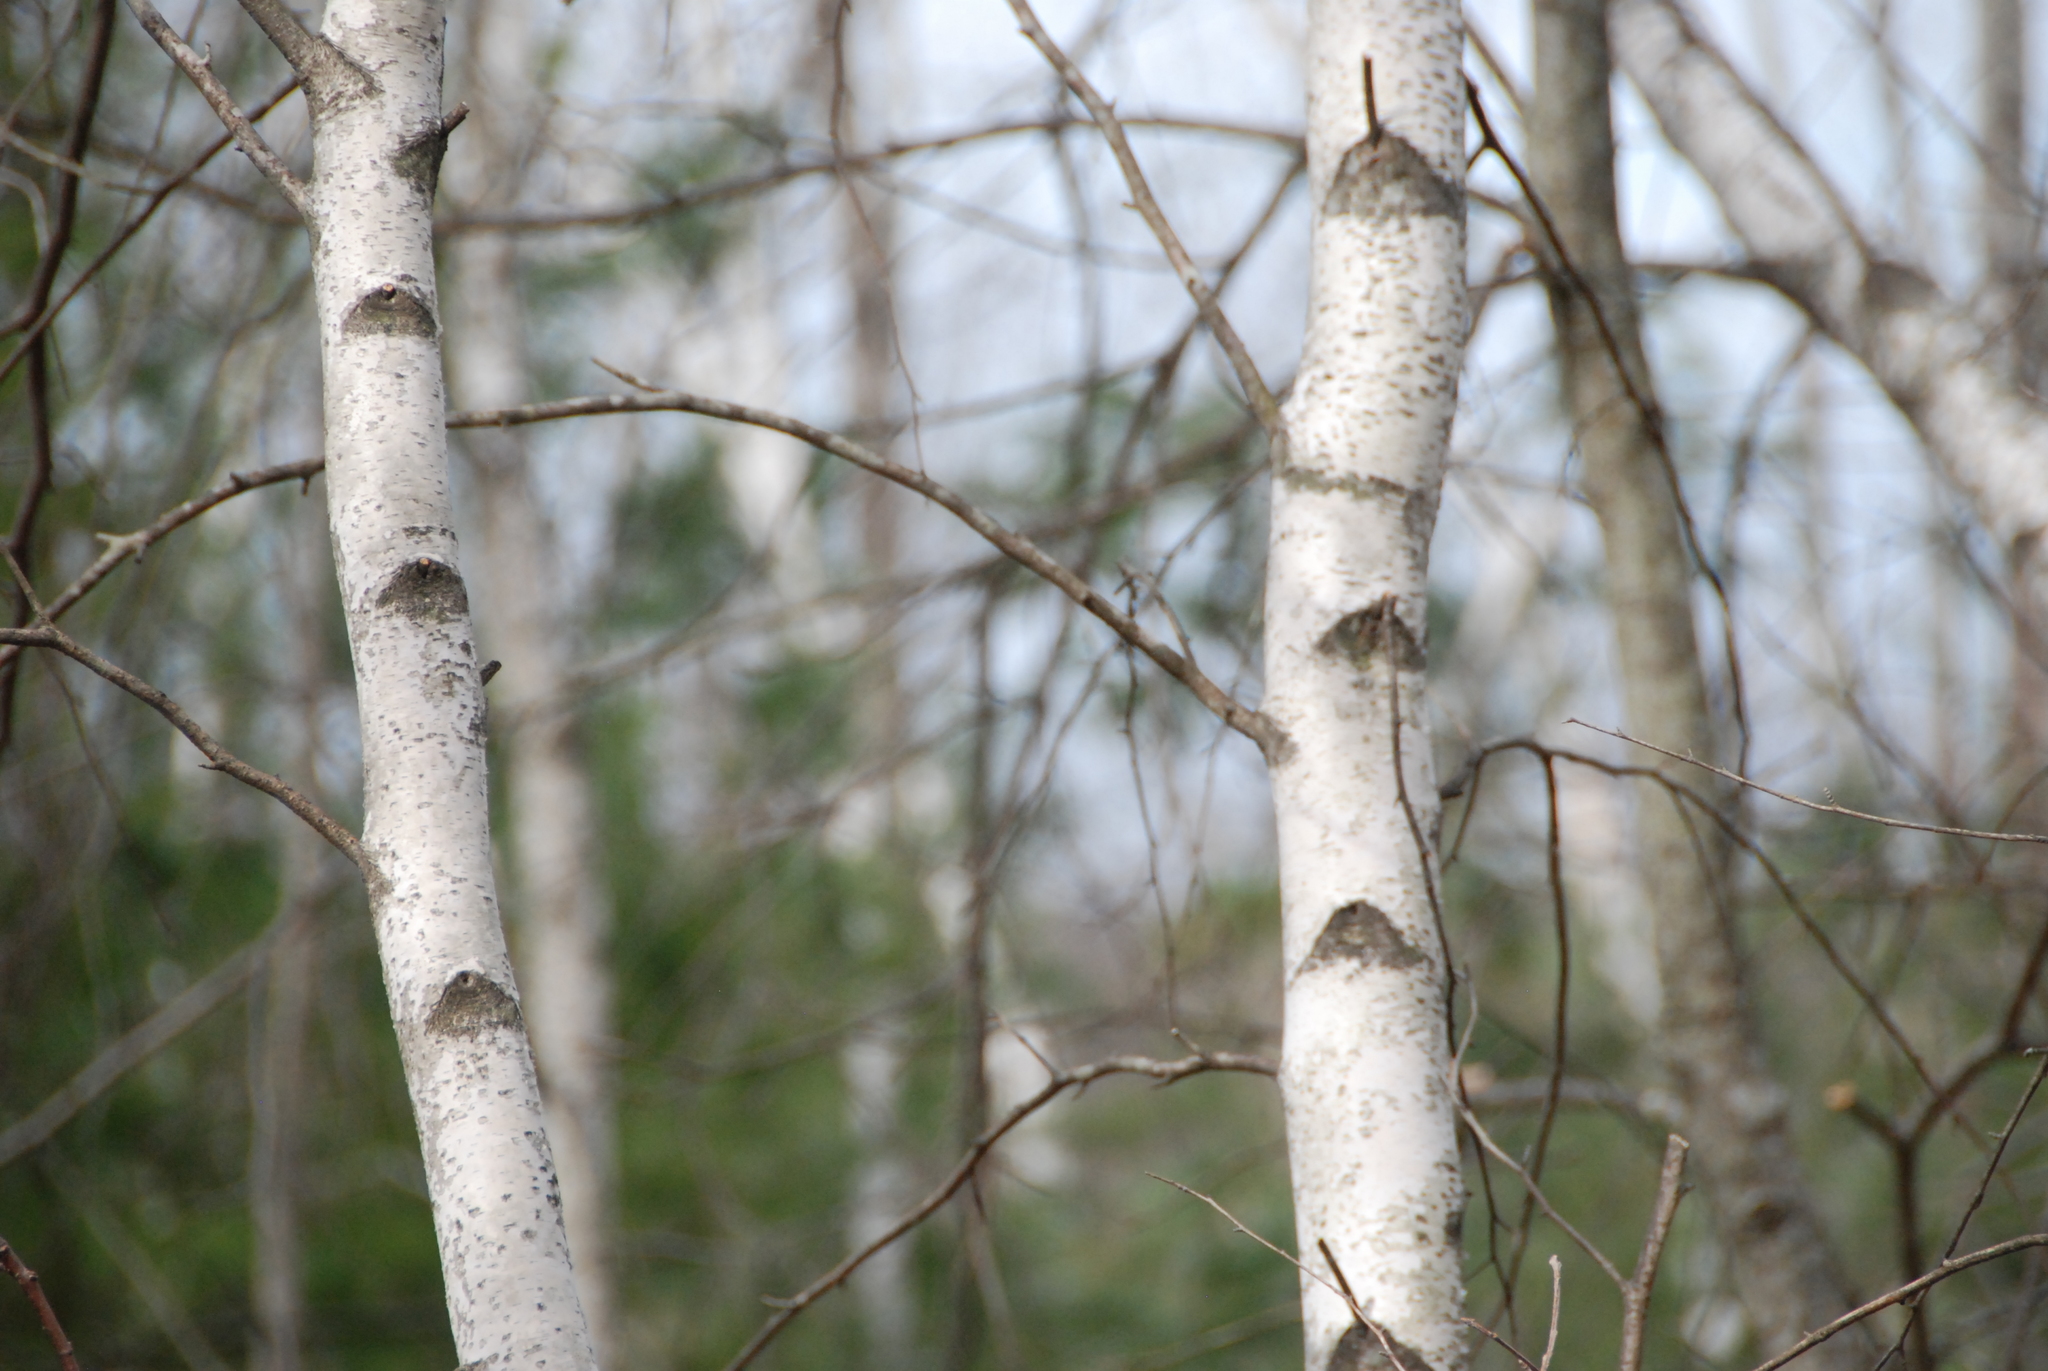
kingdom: Plantae
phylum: Tracheophyta
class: Magnoliopsida
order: Fagales
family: Betulaceae
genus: Betula
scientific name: Betula populifolia
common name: Fire birch
